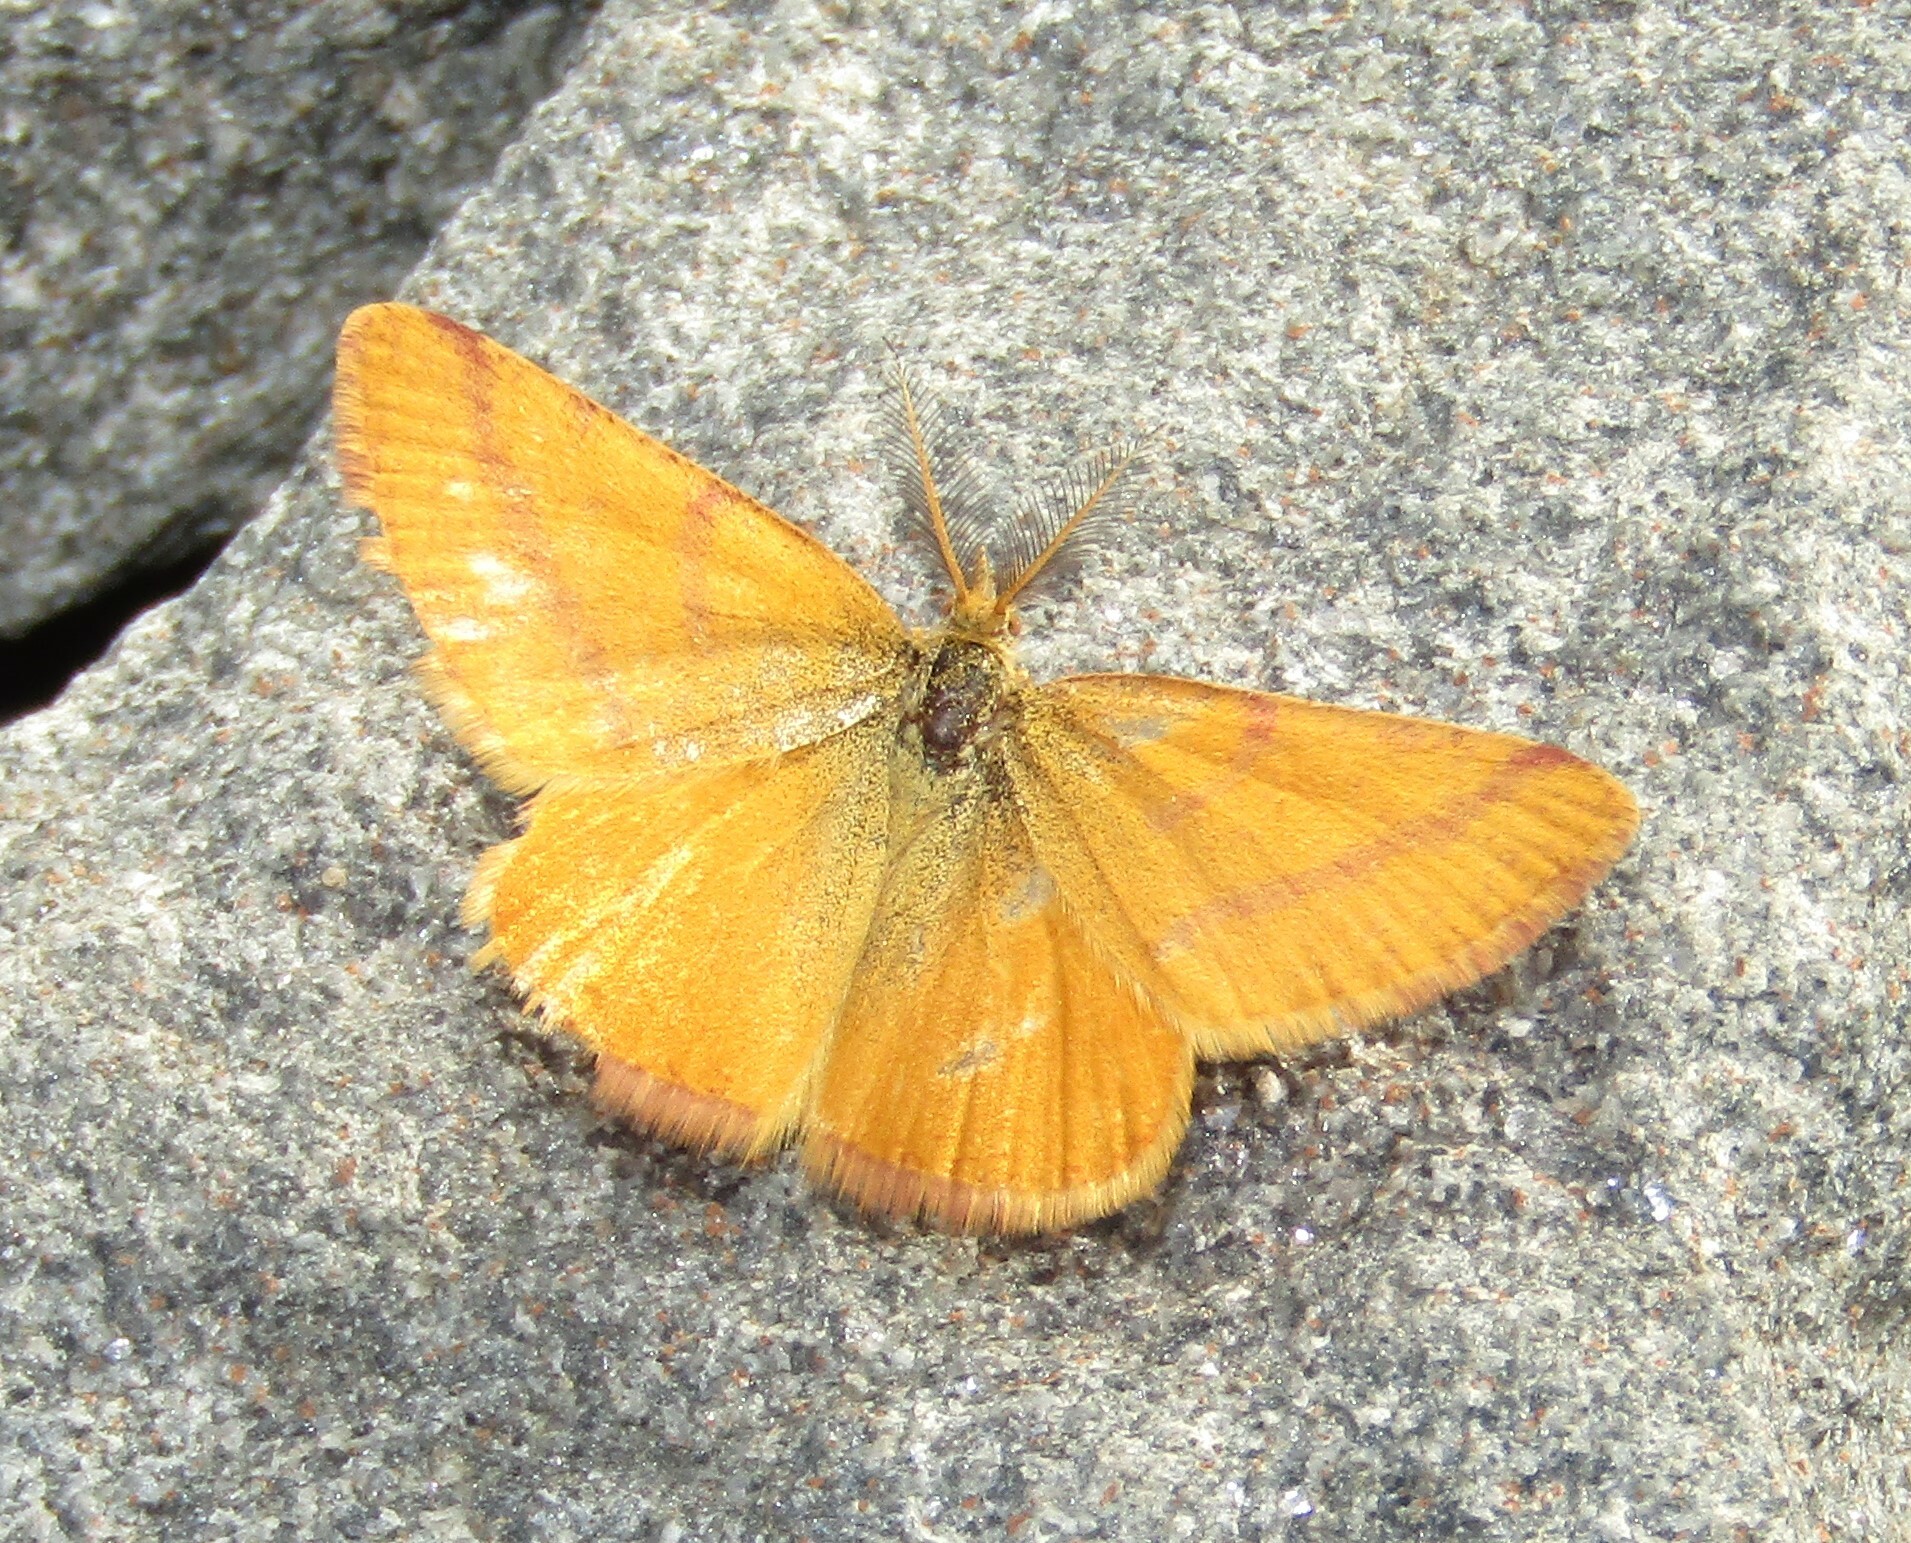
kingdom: Animalia
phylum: Arthropoda
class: Insecta
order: Lepidoptera
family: Geometridae
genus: Lythria
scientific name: Lythria purpuraria
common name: Purple-barred yellow
